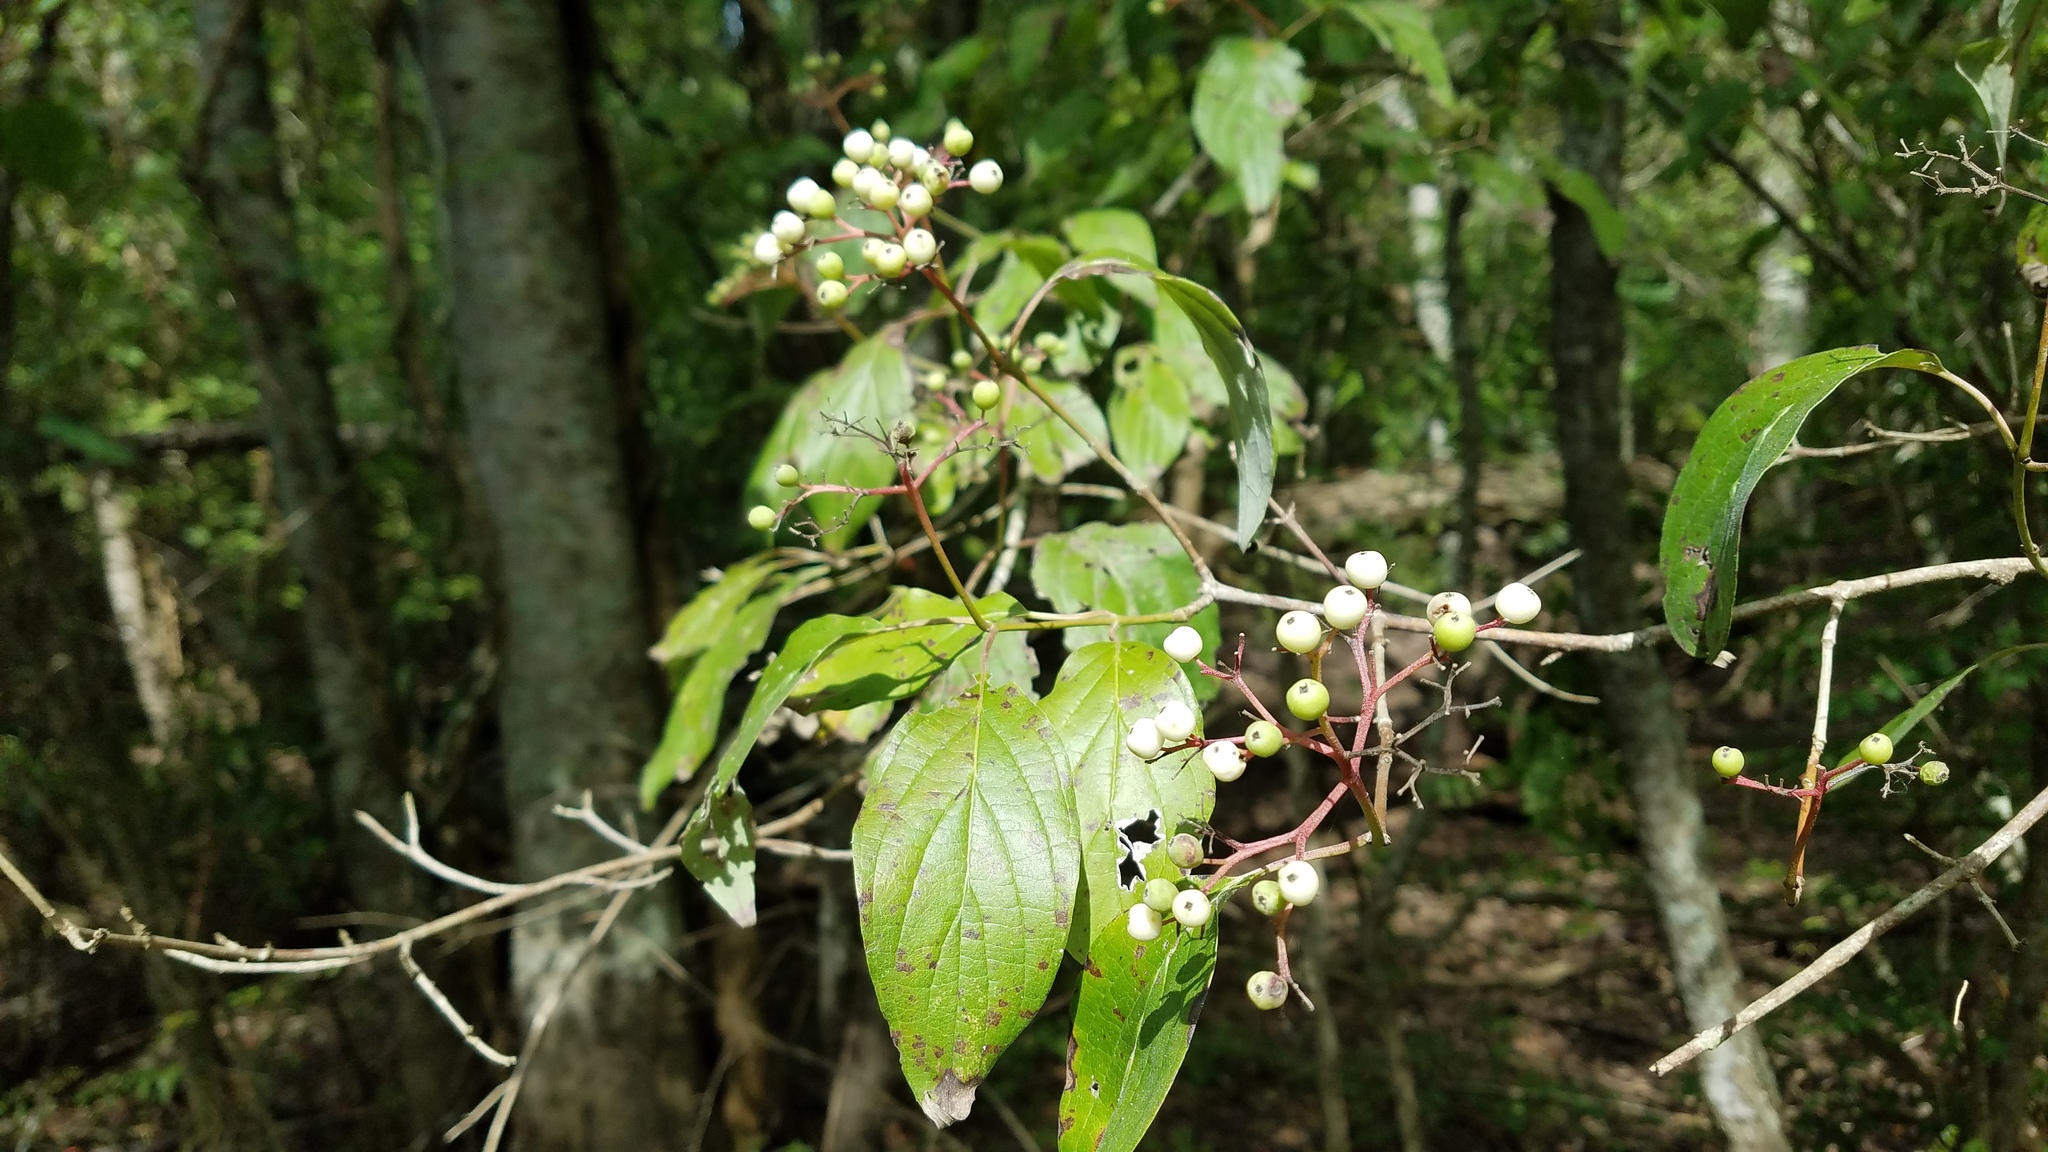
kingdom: Plantae
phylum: Tracheophyta
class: Magnoliopsida
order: Cornales
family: Cornaceae
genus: Cornus
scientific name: Cornus drummondii
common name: Rough-leaf dogwood
